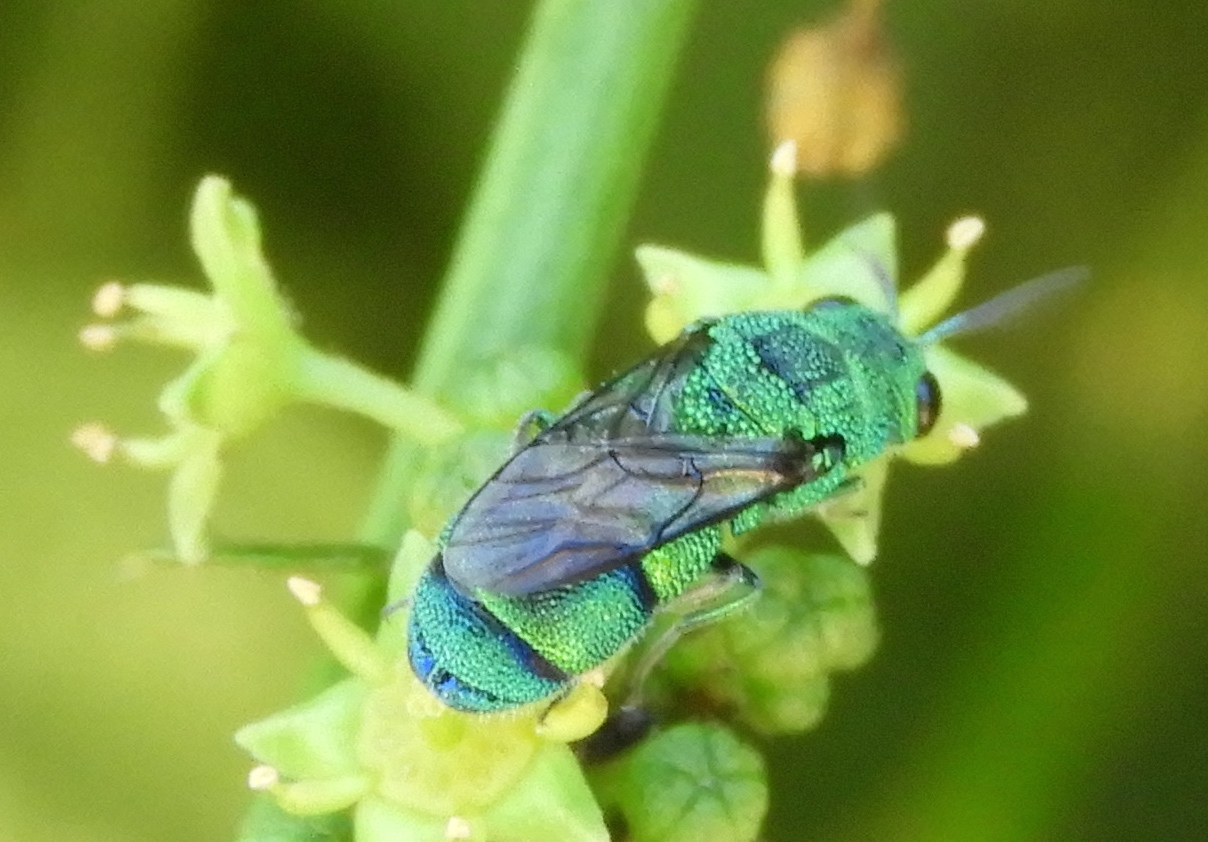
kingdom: Animalia
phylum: Arthropoda
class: Insecta
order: Hymenoptera
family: Chrysididae
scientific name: Chrysididae
